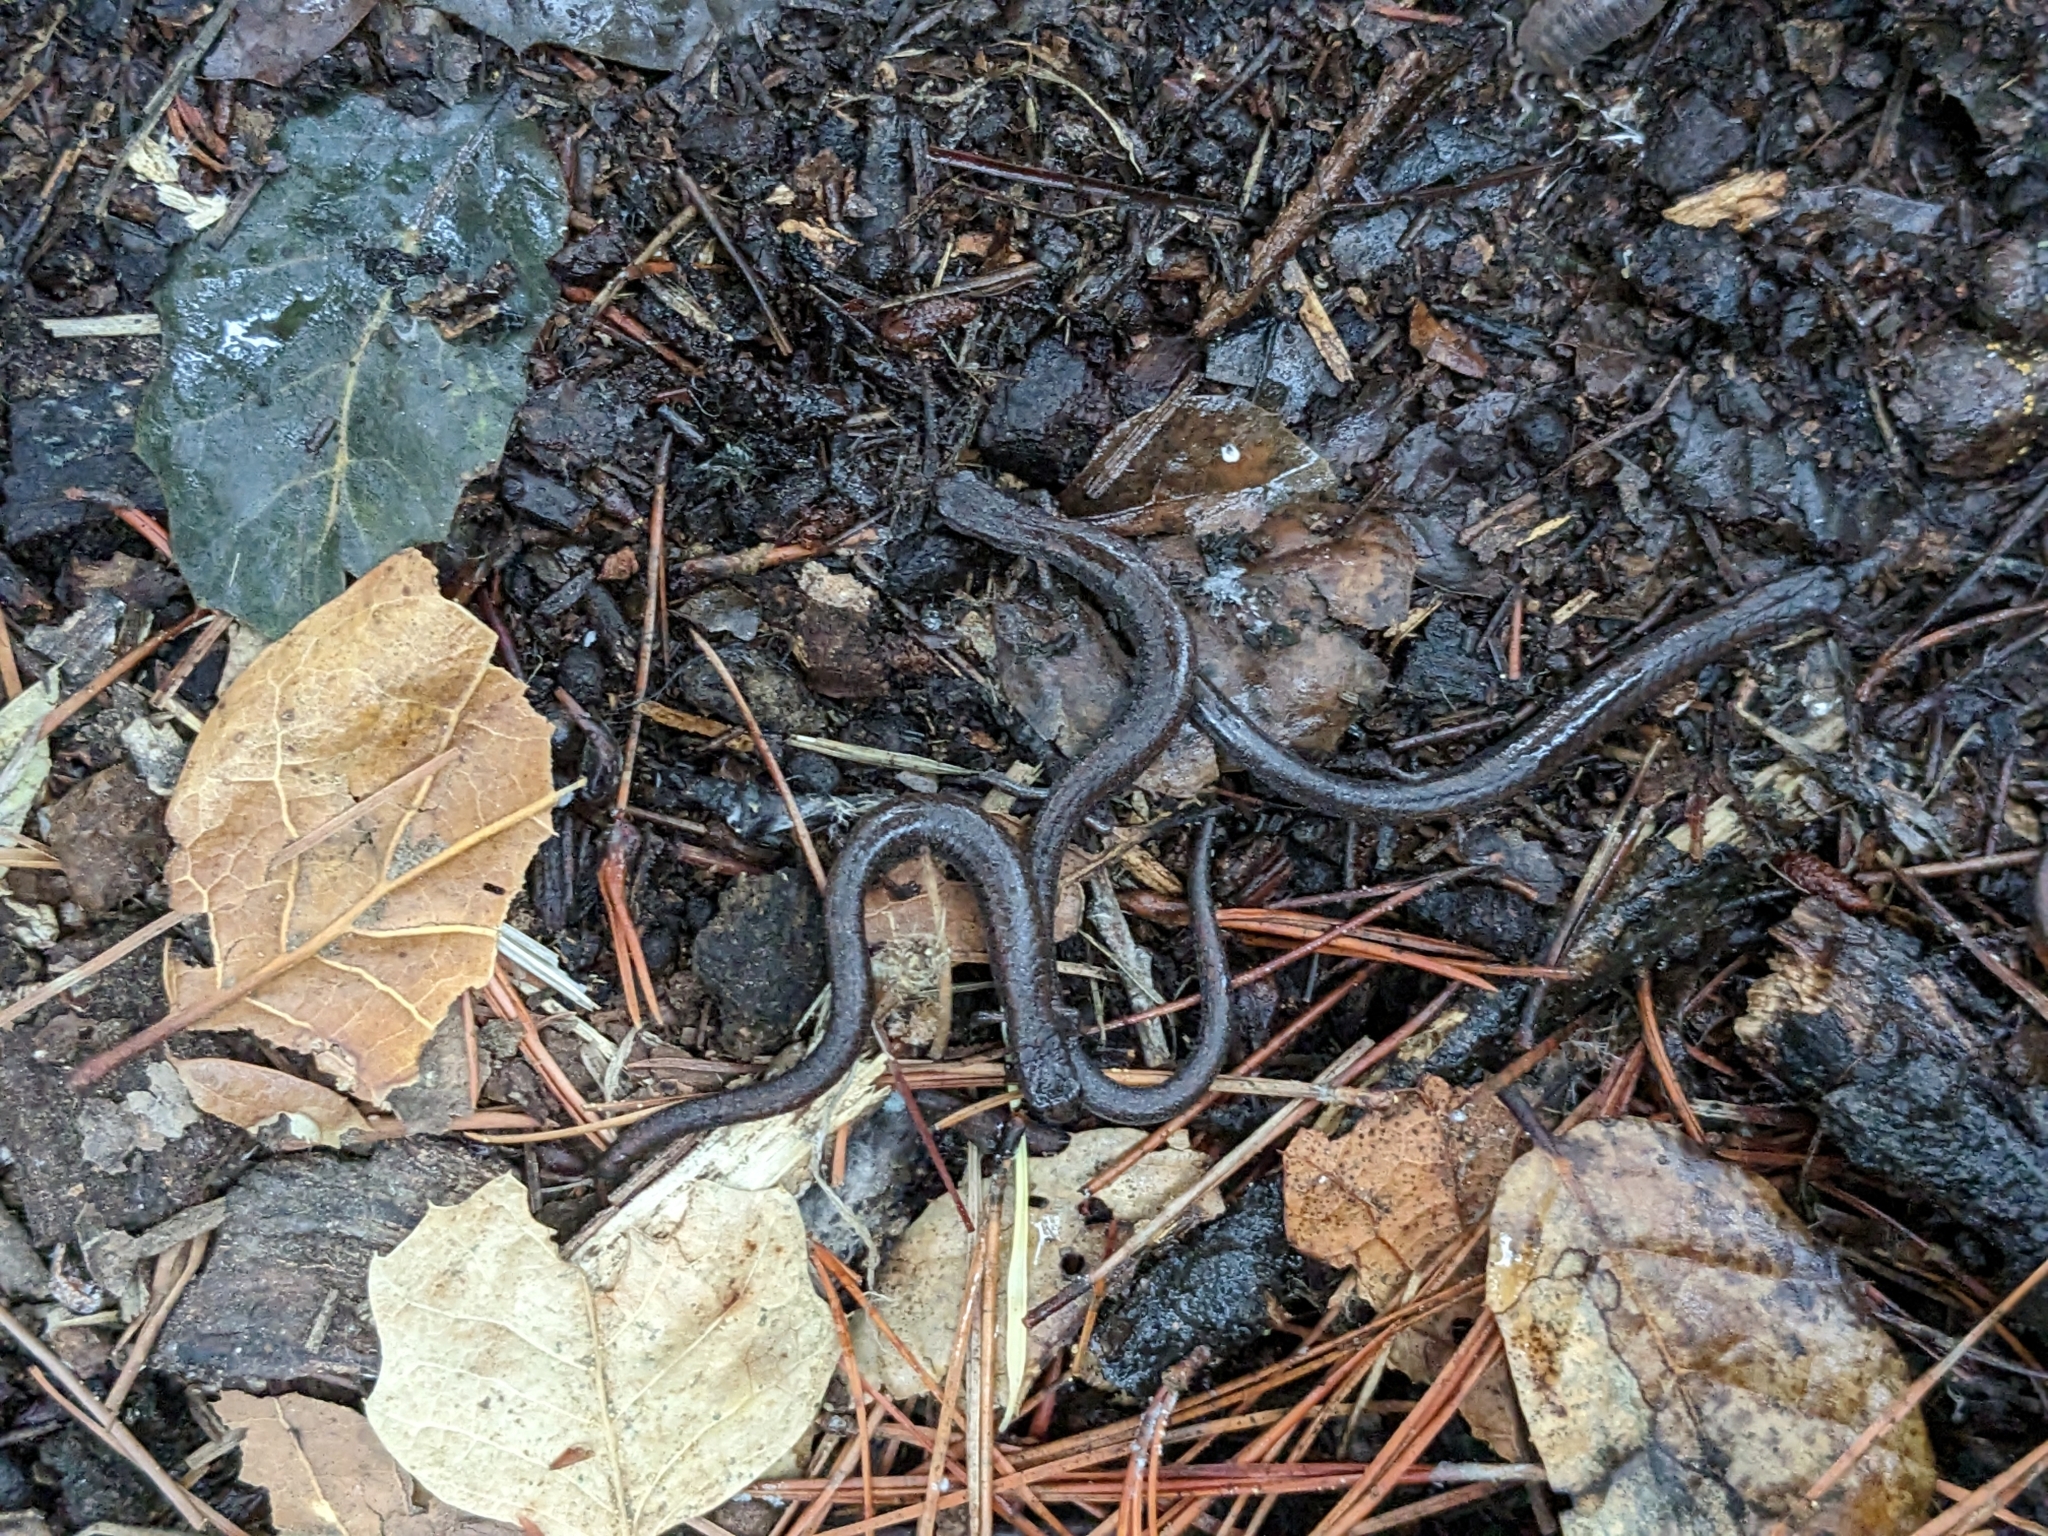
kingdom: Animalia
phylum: Chordata
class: Amphibia
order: Caudata
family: Plethodontidae
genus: Batrachoseps
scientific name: Batrachoseps attenuatus
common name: California slender salamander
